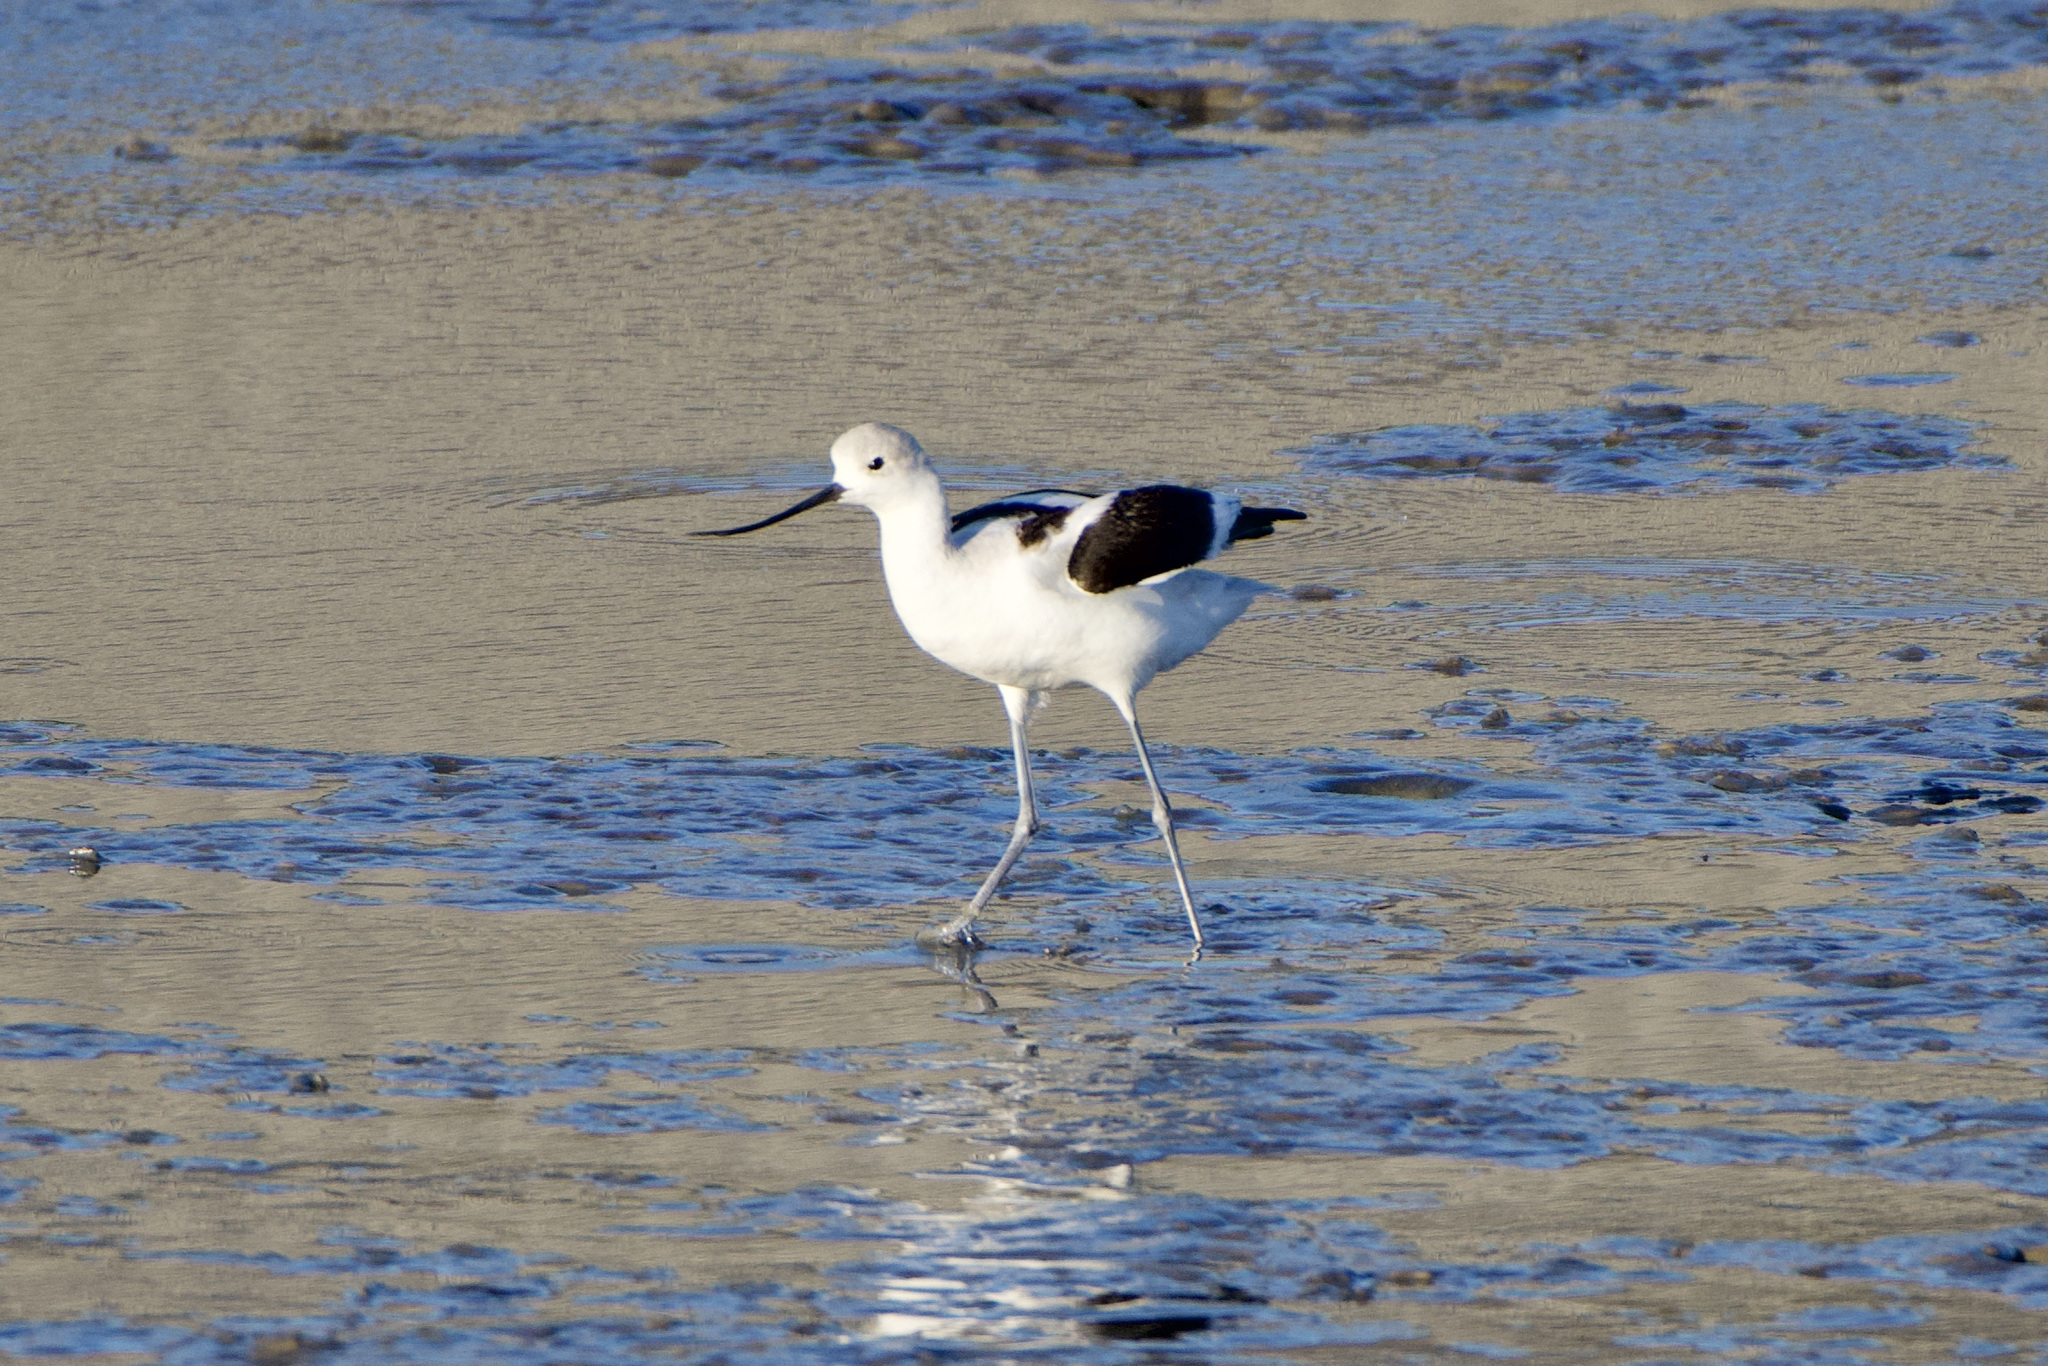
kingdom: Animalia
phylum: Chordata
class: Aves
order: Charadriiformes
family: Recurvirostridae
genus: Recurvirostra
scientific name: Recurvirostra americana
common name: American avocet
